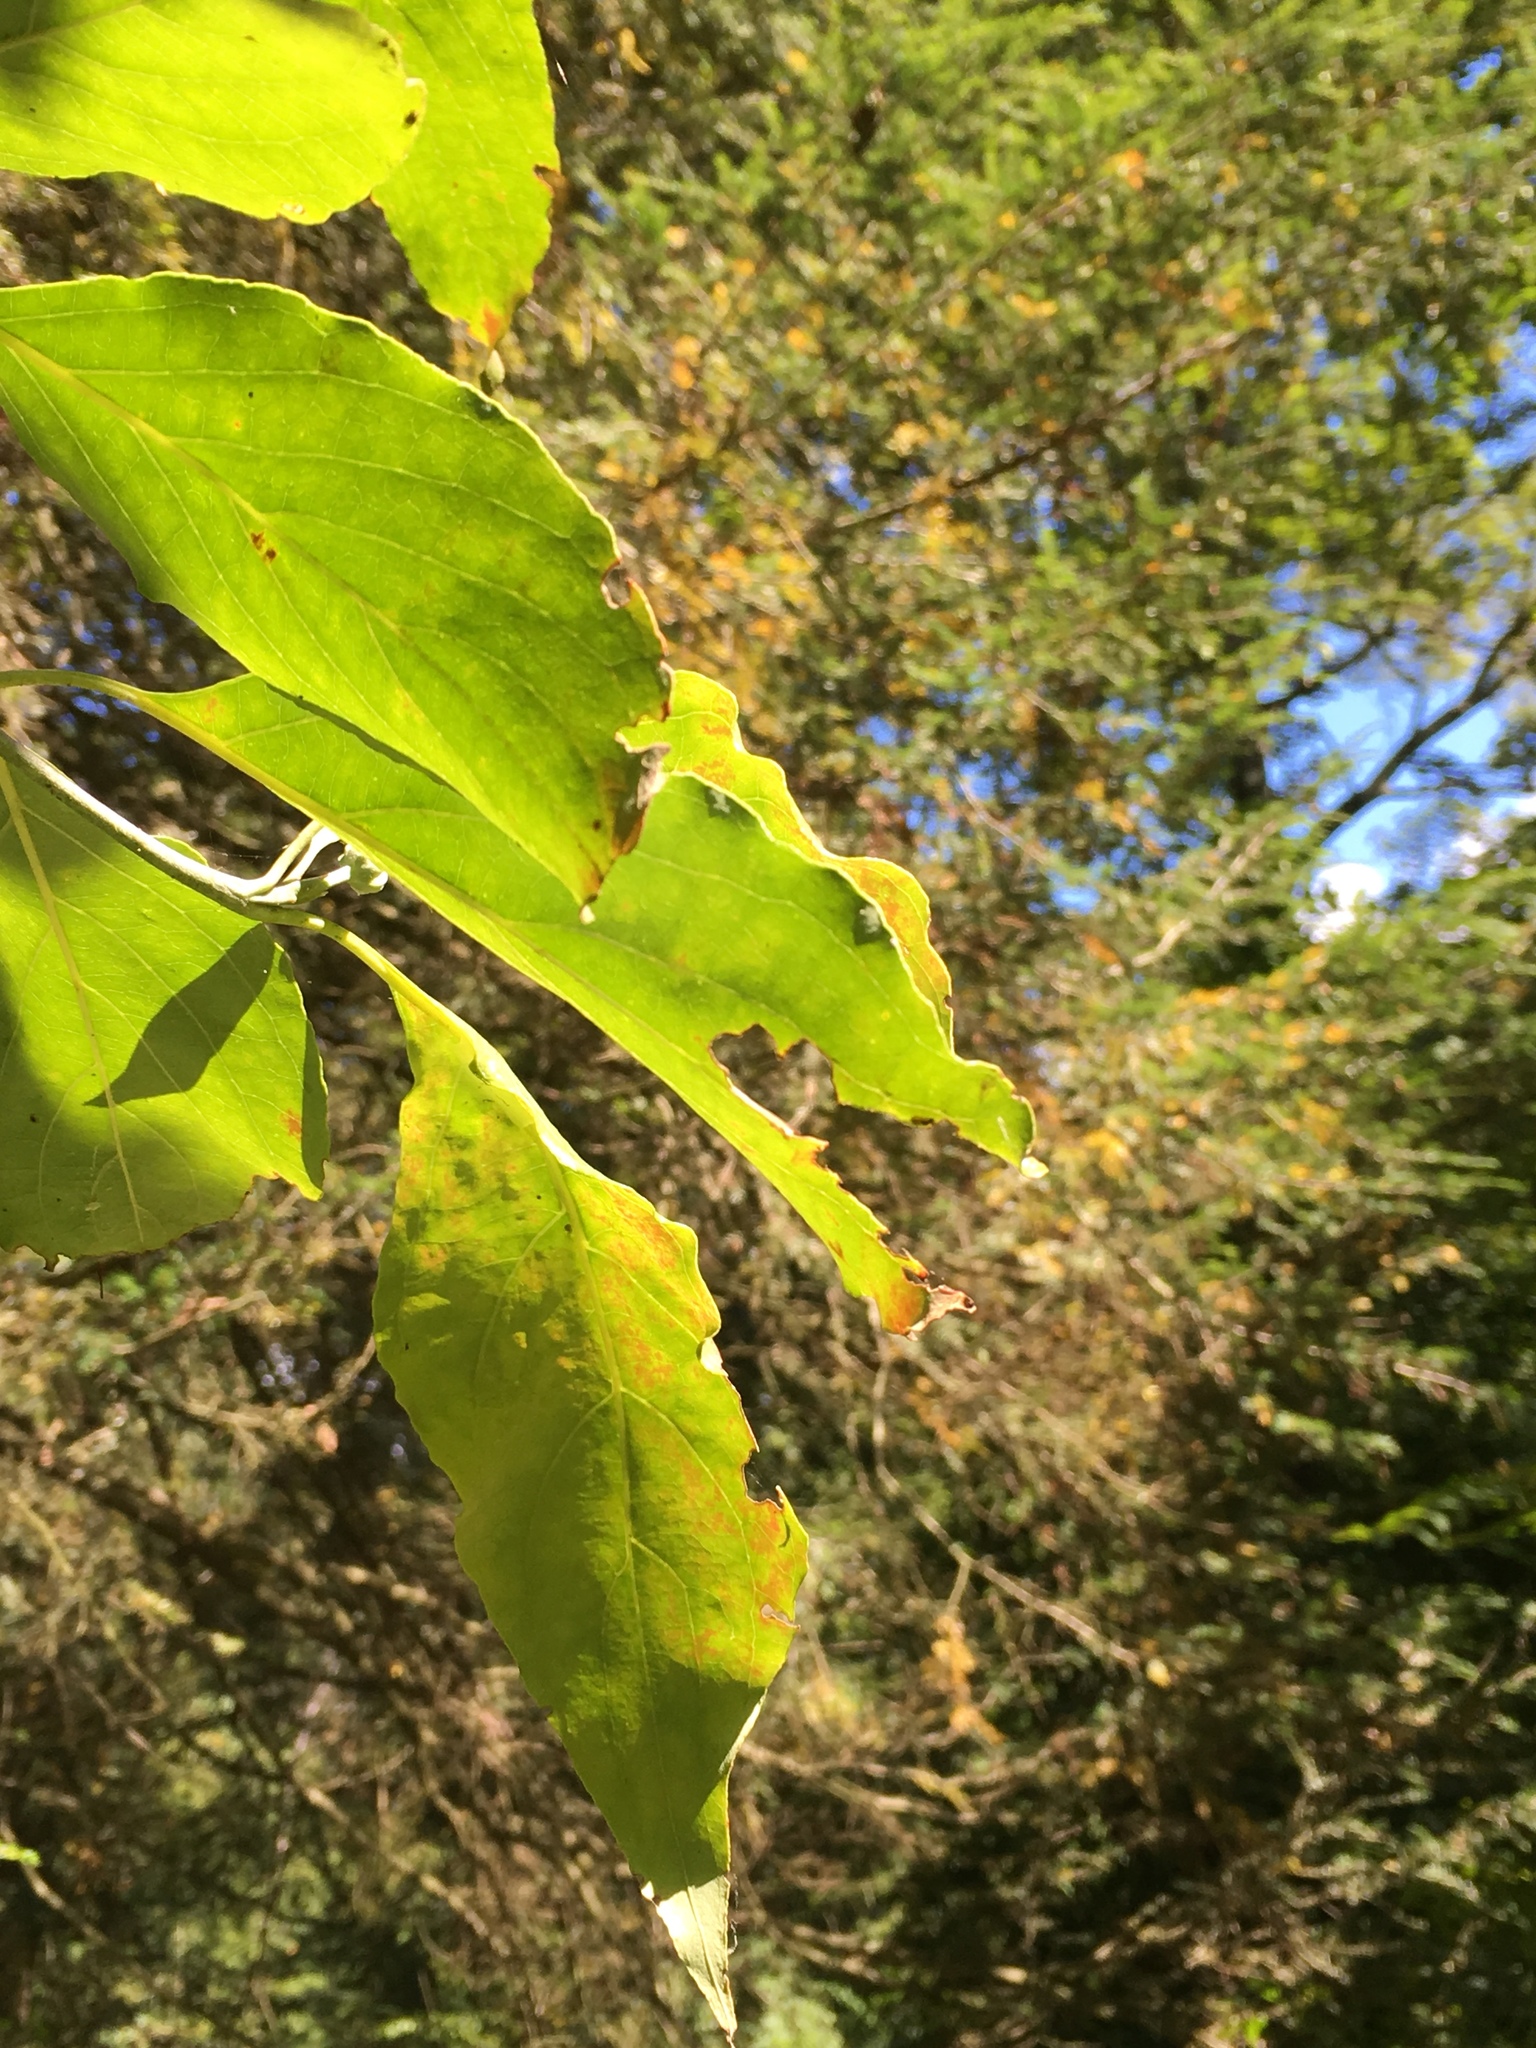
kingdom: Plantae
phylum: Tracheophyta
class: Magnoliopsida
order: Cornales
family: Cornaceae
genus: Cornus
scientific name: Cornus florida
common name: Flowering dogwood
